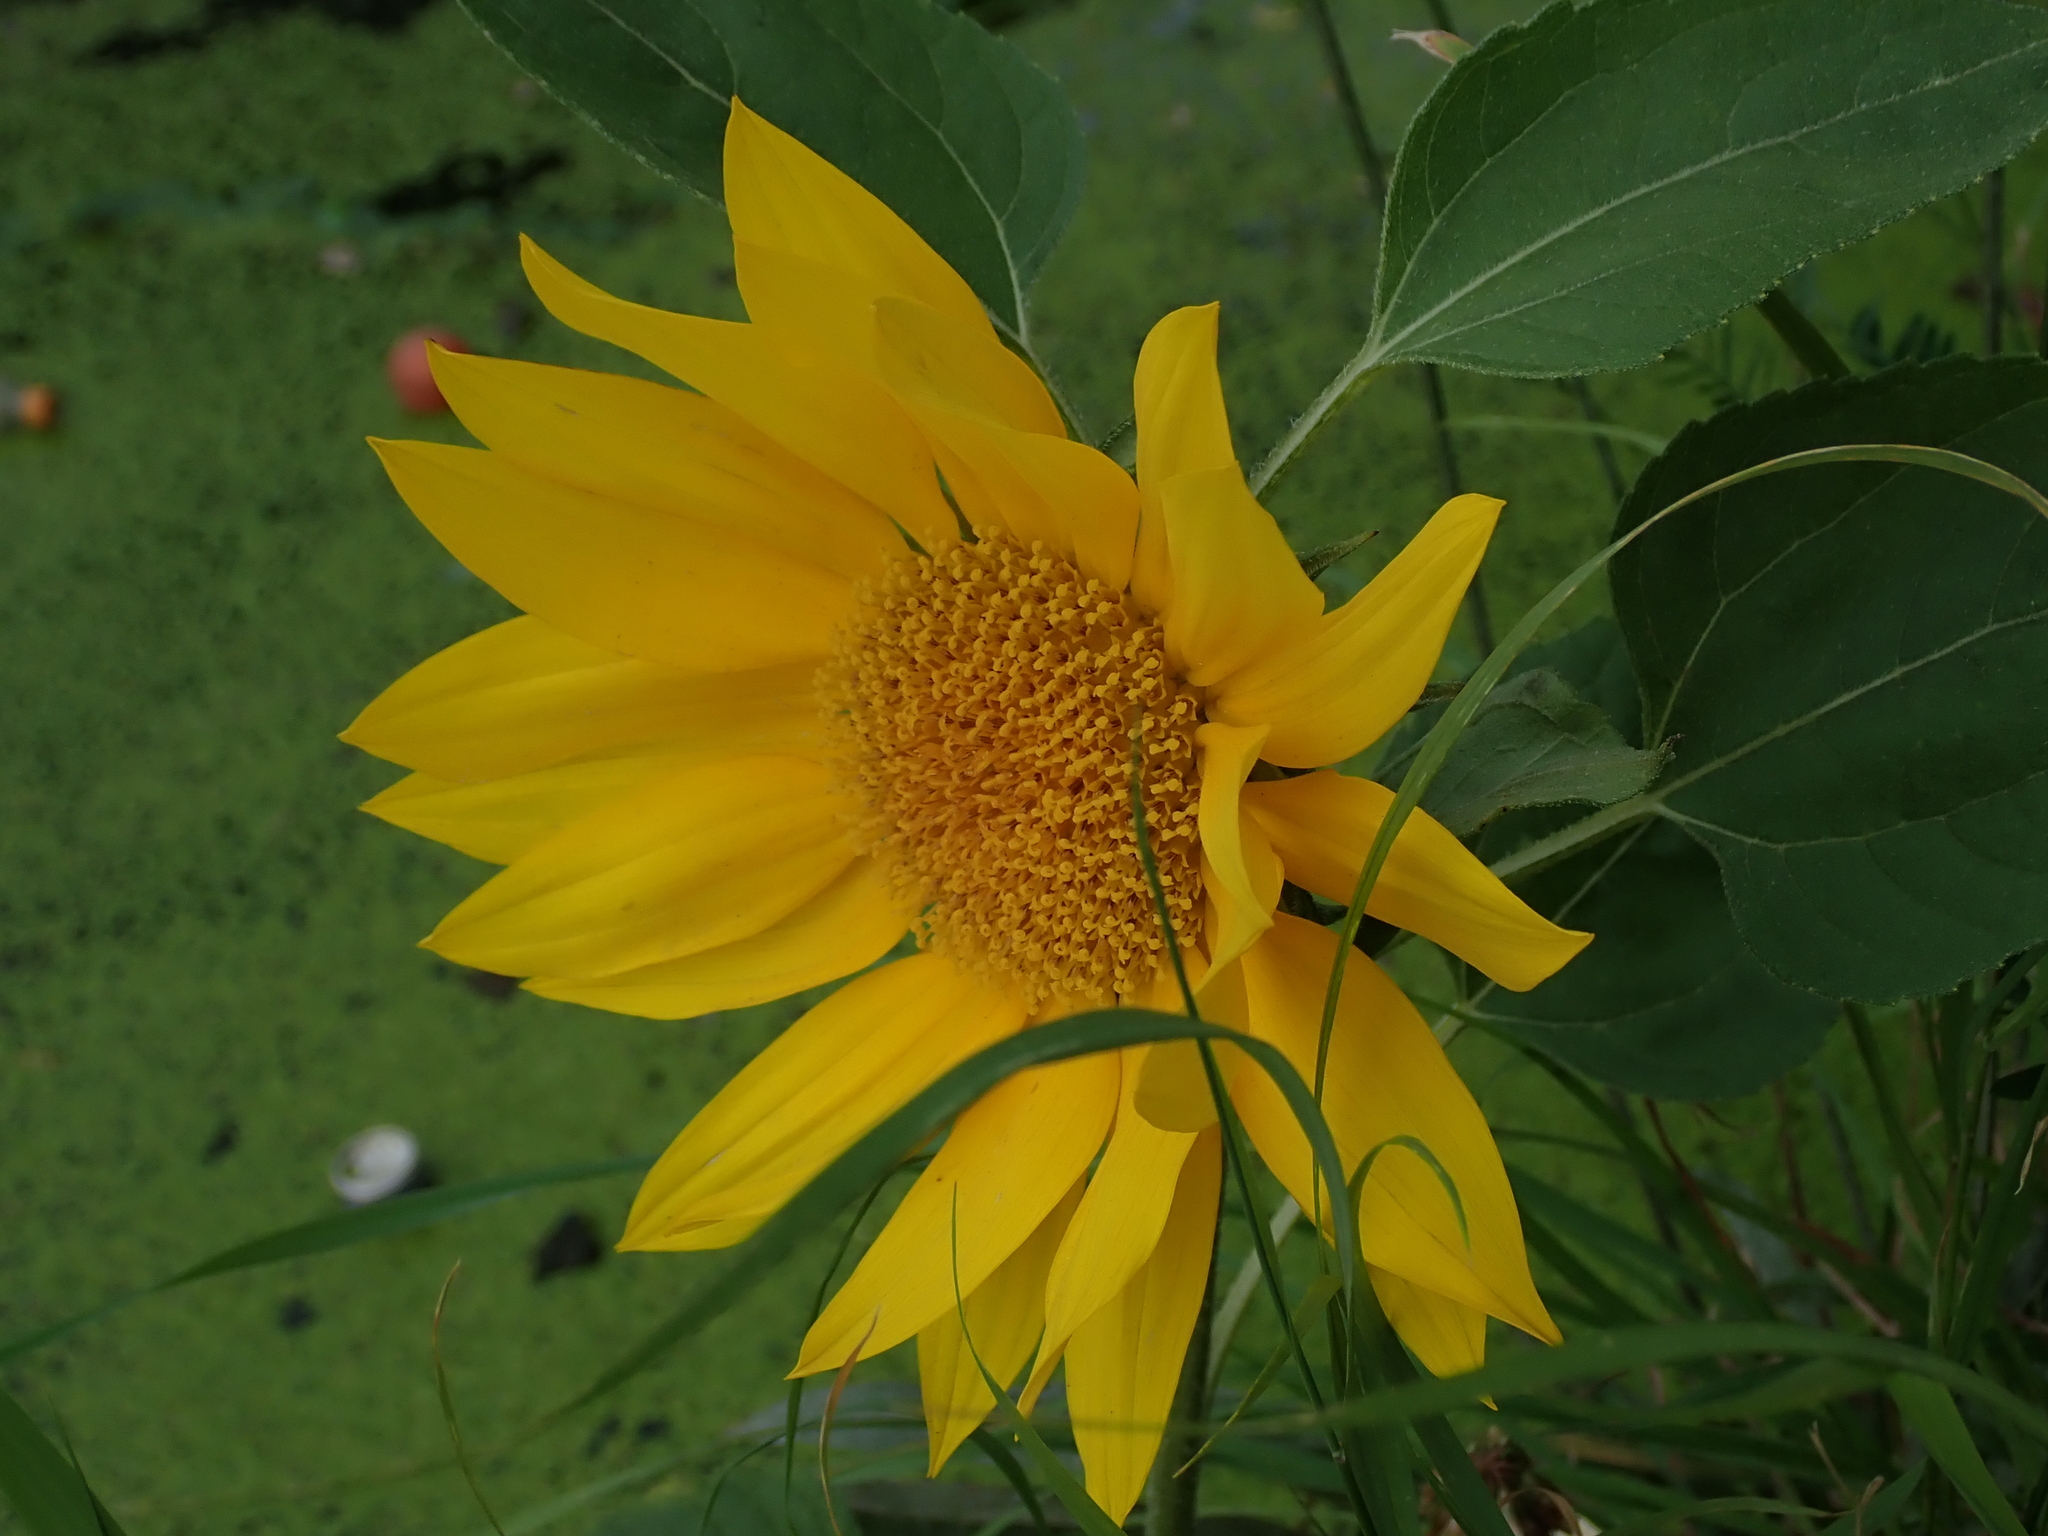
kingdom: Plantae
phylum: Tracheophyta
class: Magnoliopsida
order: Asterales
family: Asteraceae
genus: Helianthus
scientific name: Helianthus annuus
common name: Sunflower
